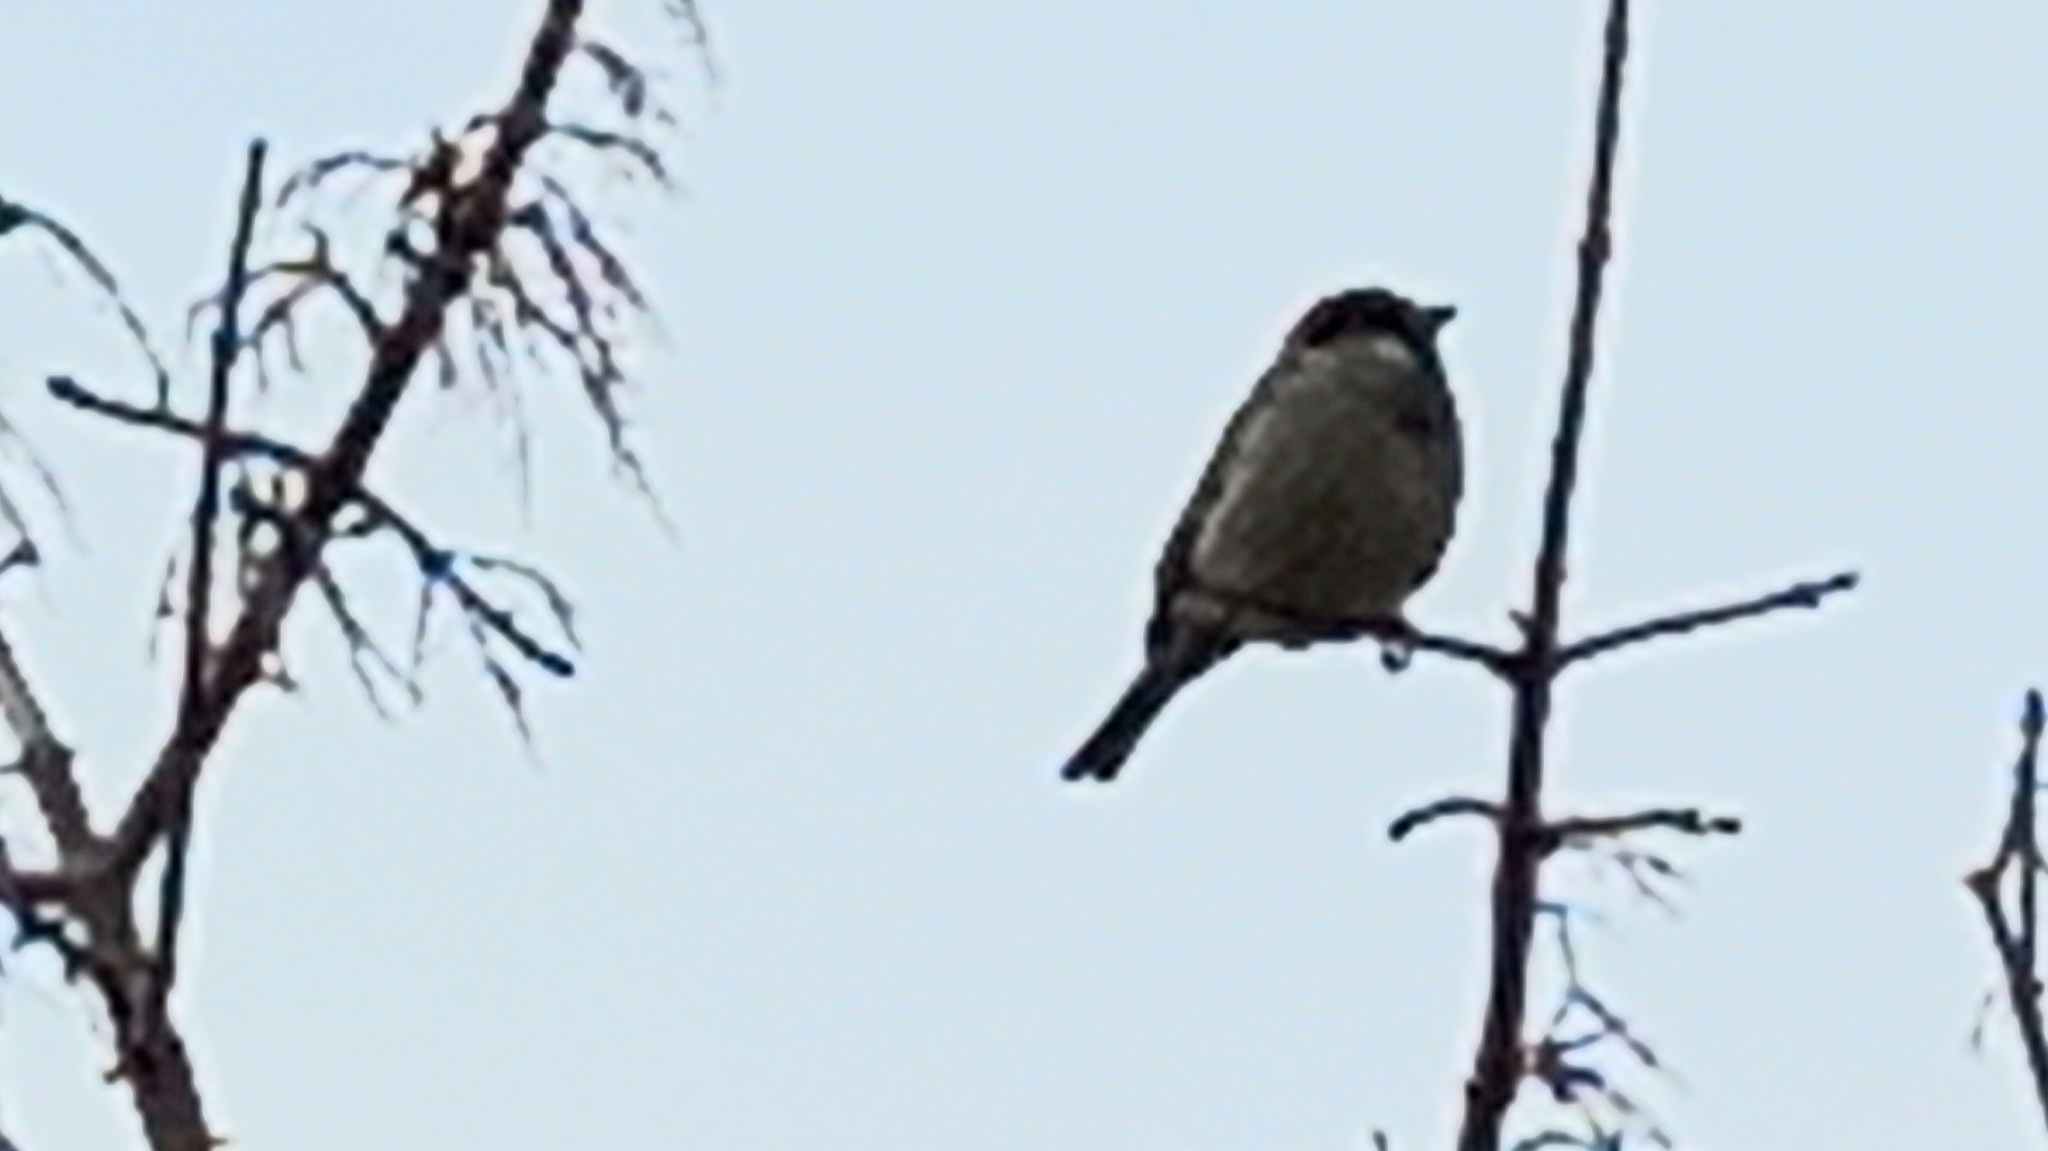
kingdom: Animalia
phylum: Chordata
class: Aves
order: Passeriformes
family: Passeridae
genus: Passer
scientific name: Passer domesticus
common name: House sparrow
